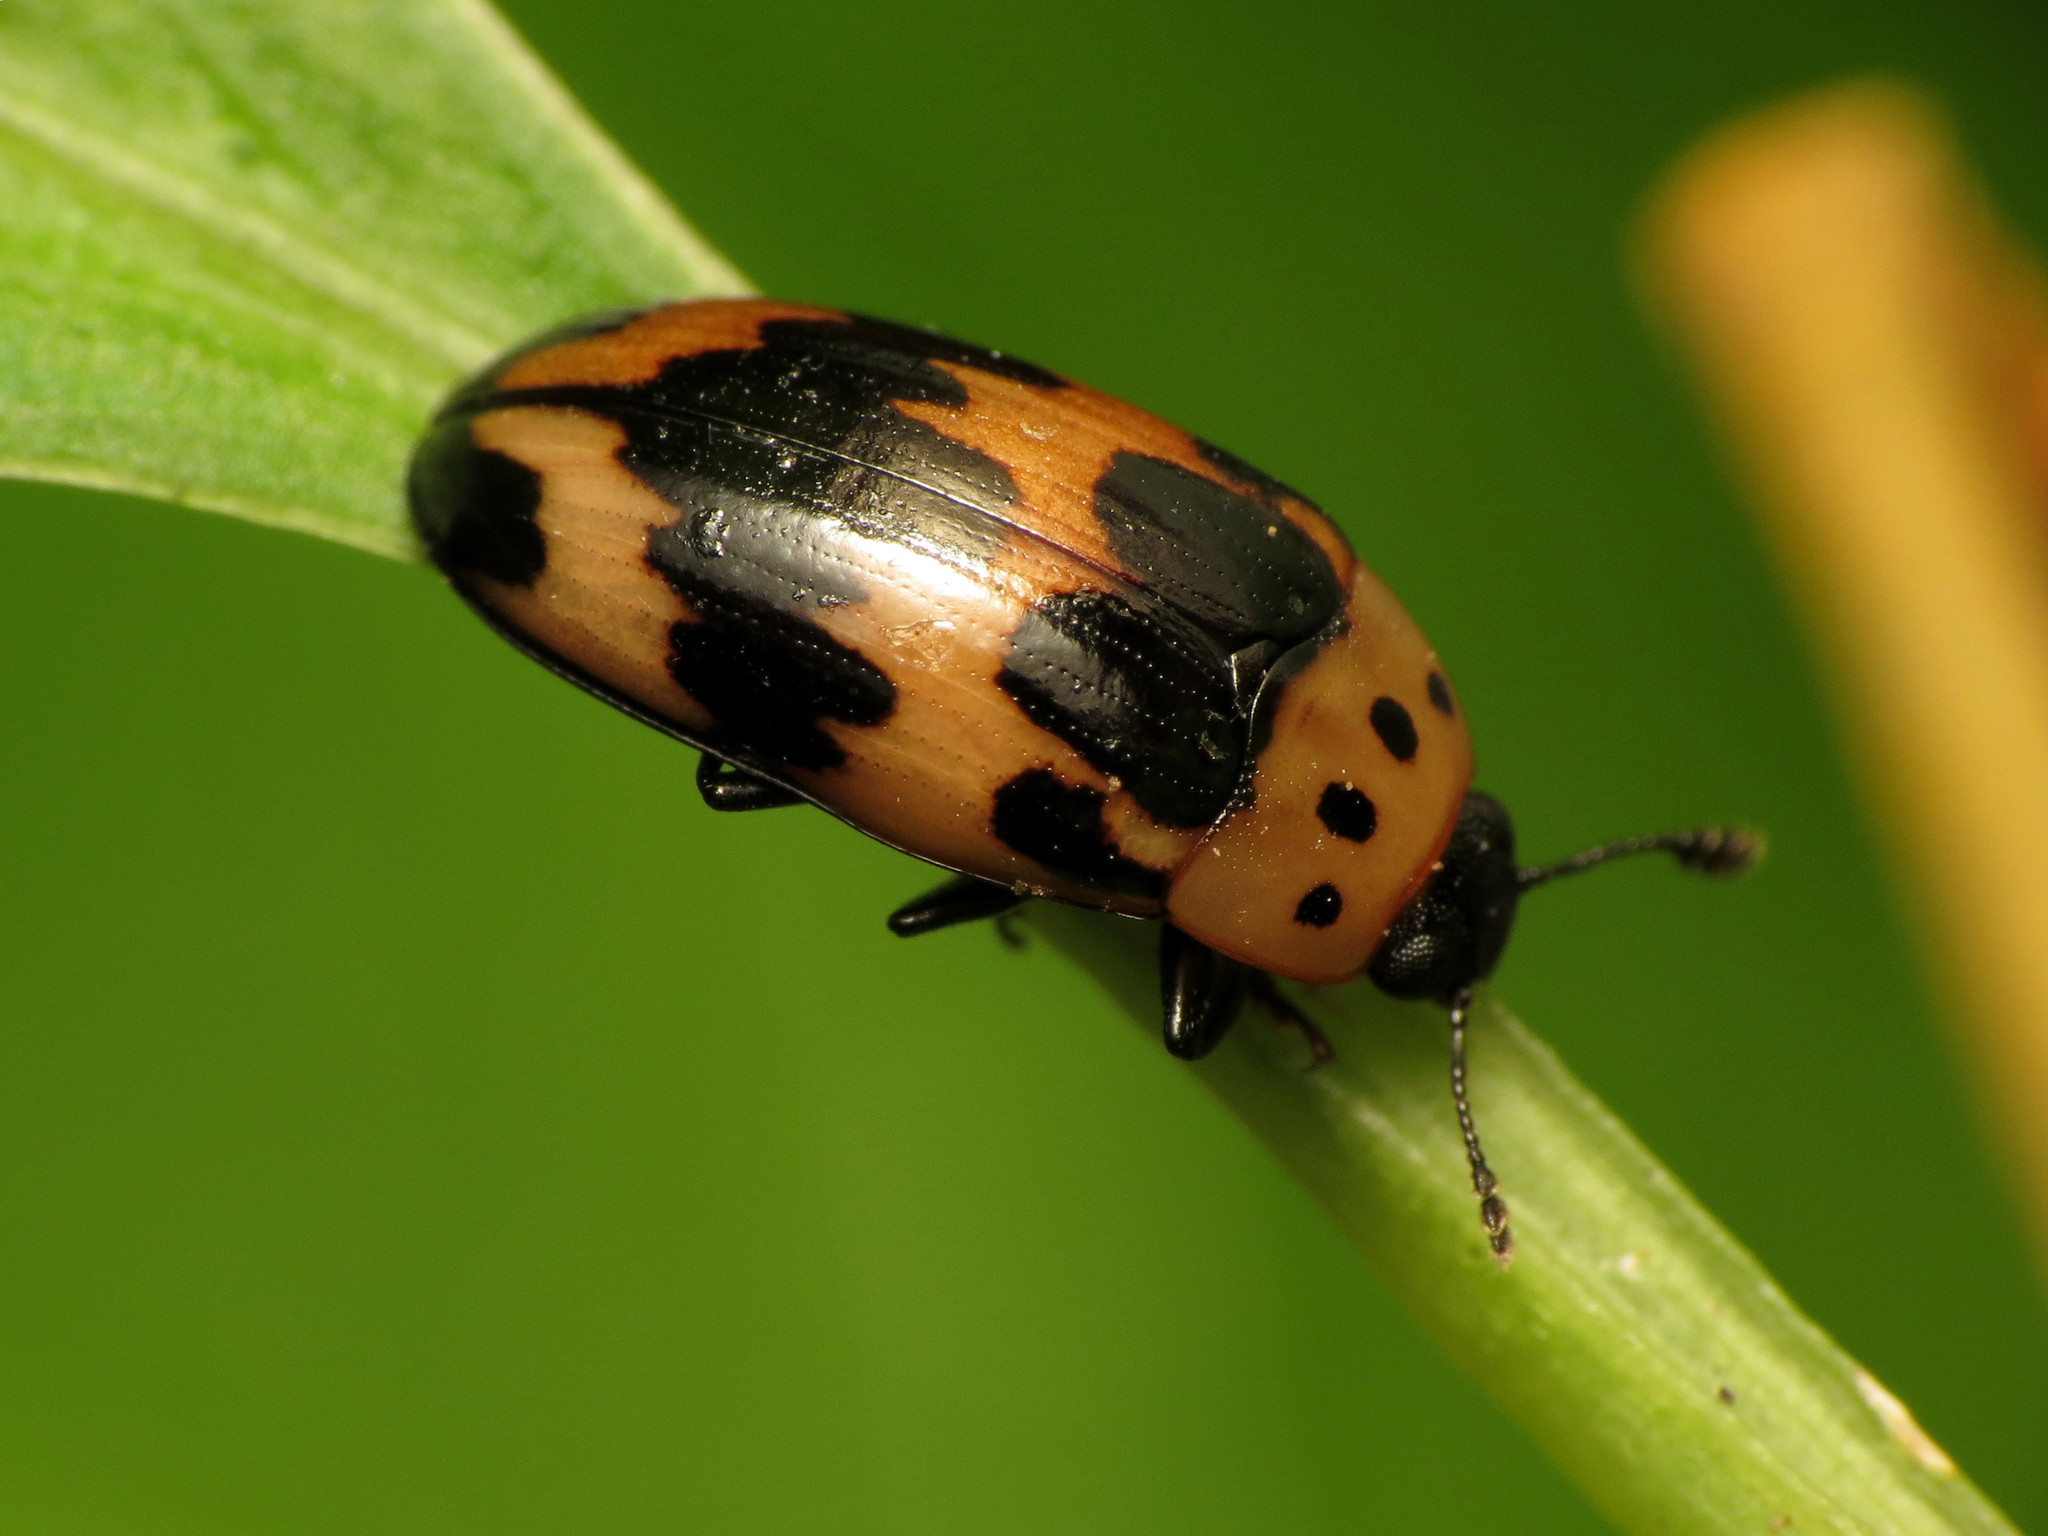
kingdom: Animalia
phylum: Arthropoda
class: Insecta
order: Coleoptera
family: Erotylidae
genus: Ischyrus
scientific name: Ischyrus quadripunctatus
